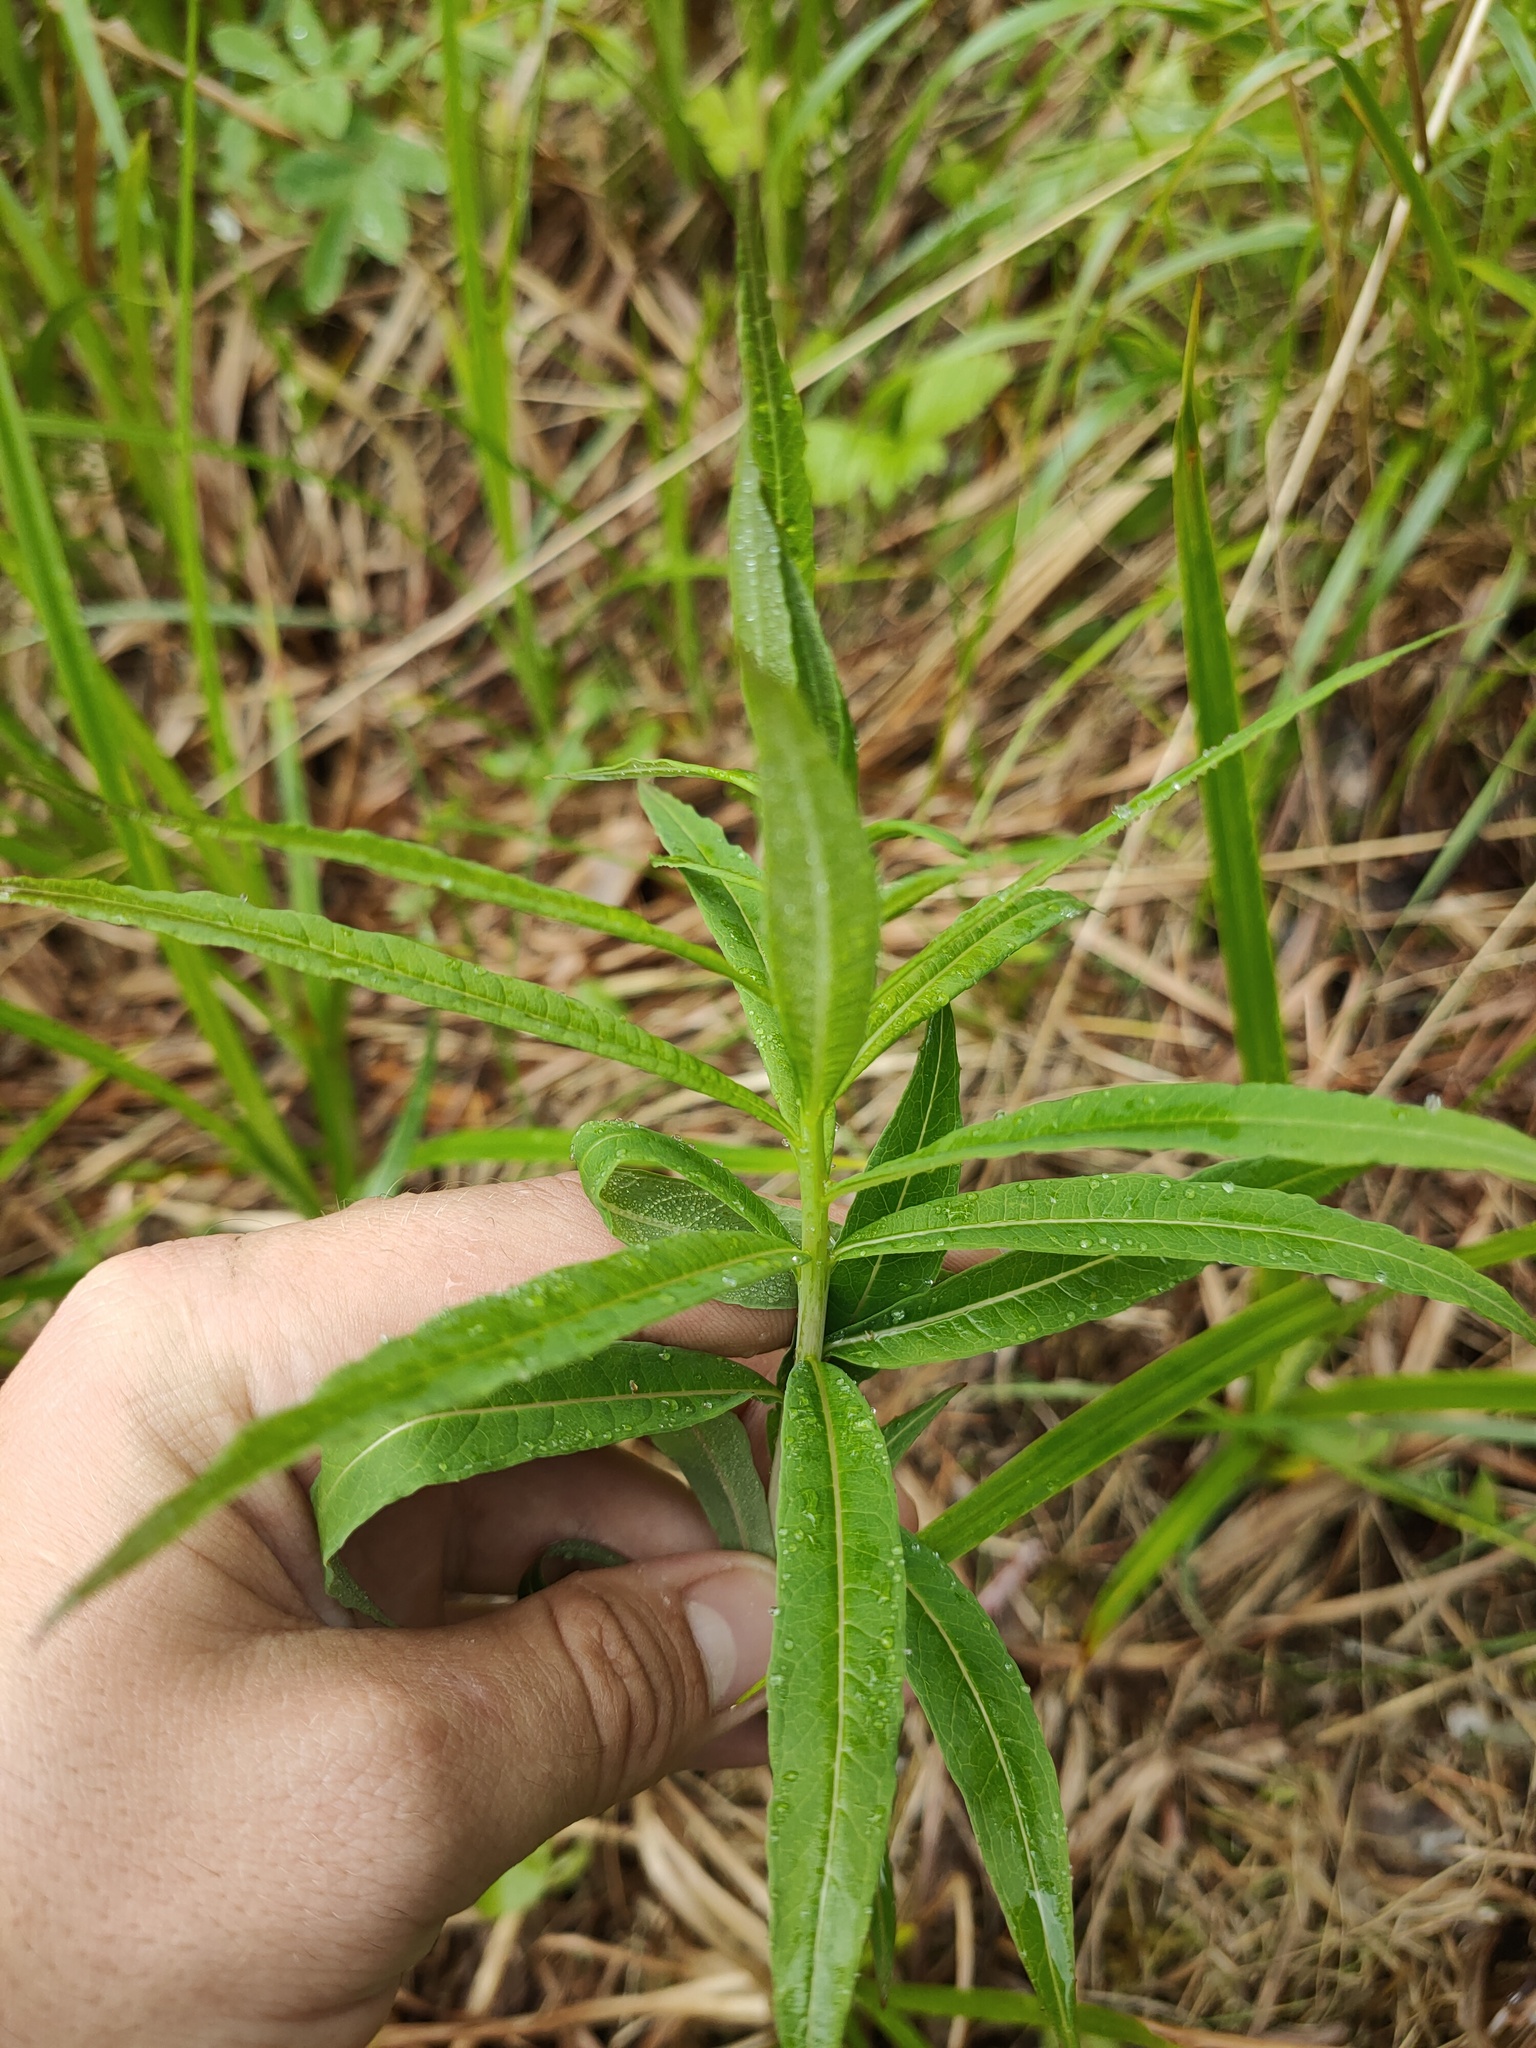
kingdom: Plantae
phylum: Tracheophyta
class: Magnoliopsida
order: Myrtales
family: Onagraceae
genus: Chamaenerion
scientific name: Chamaenerion angustifolium
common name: Fireweed
